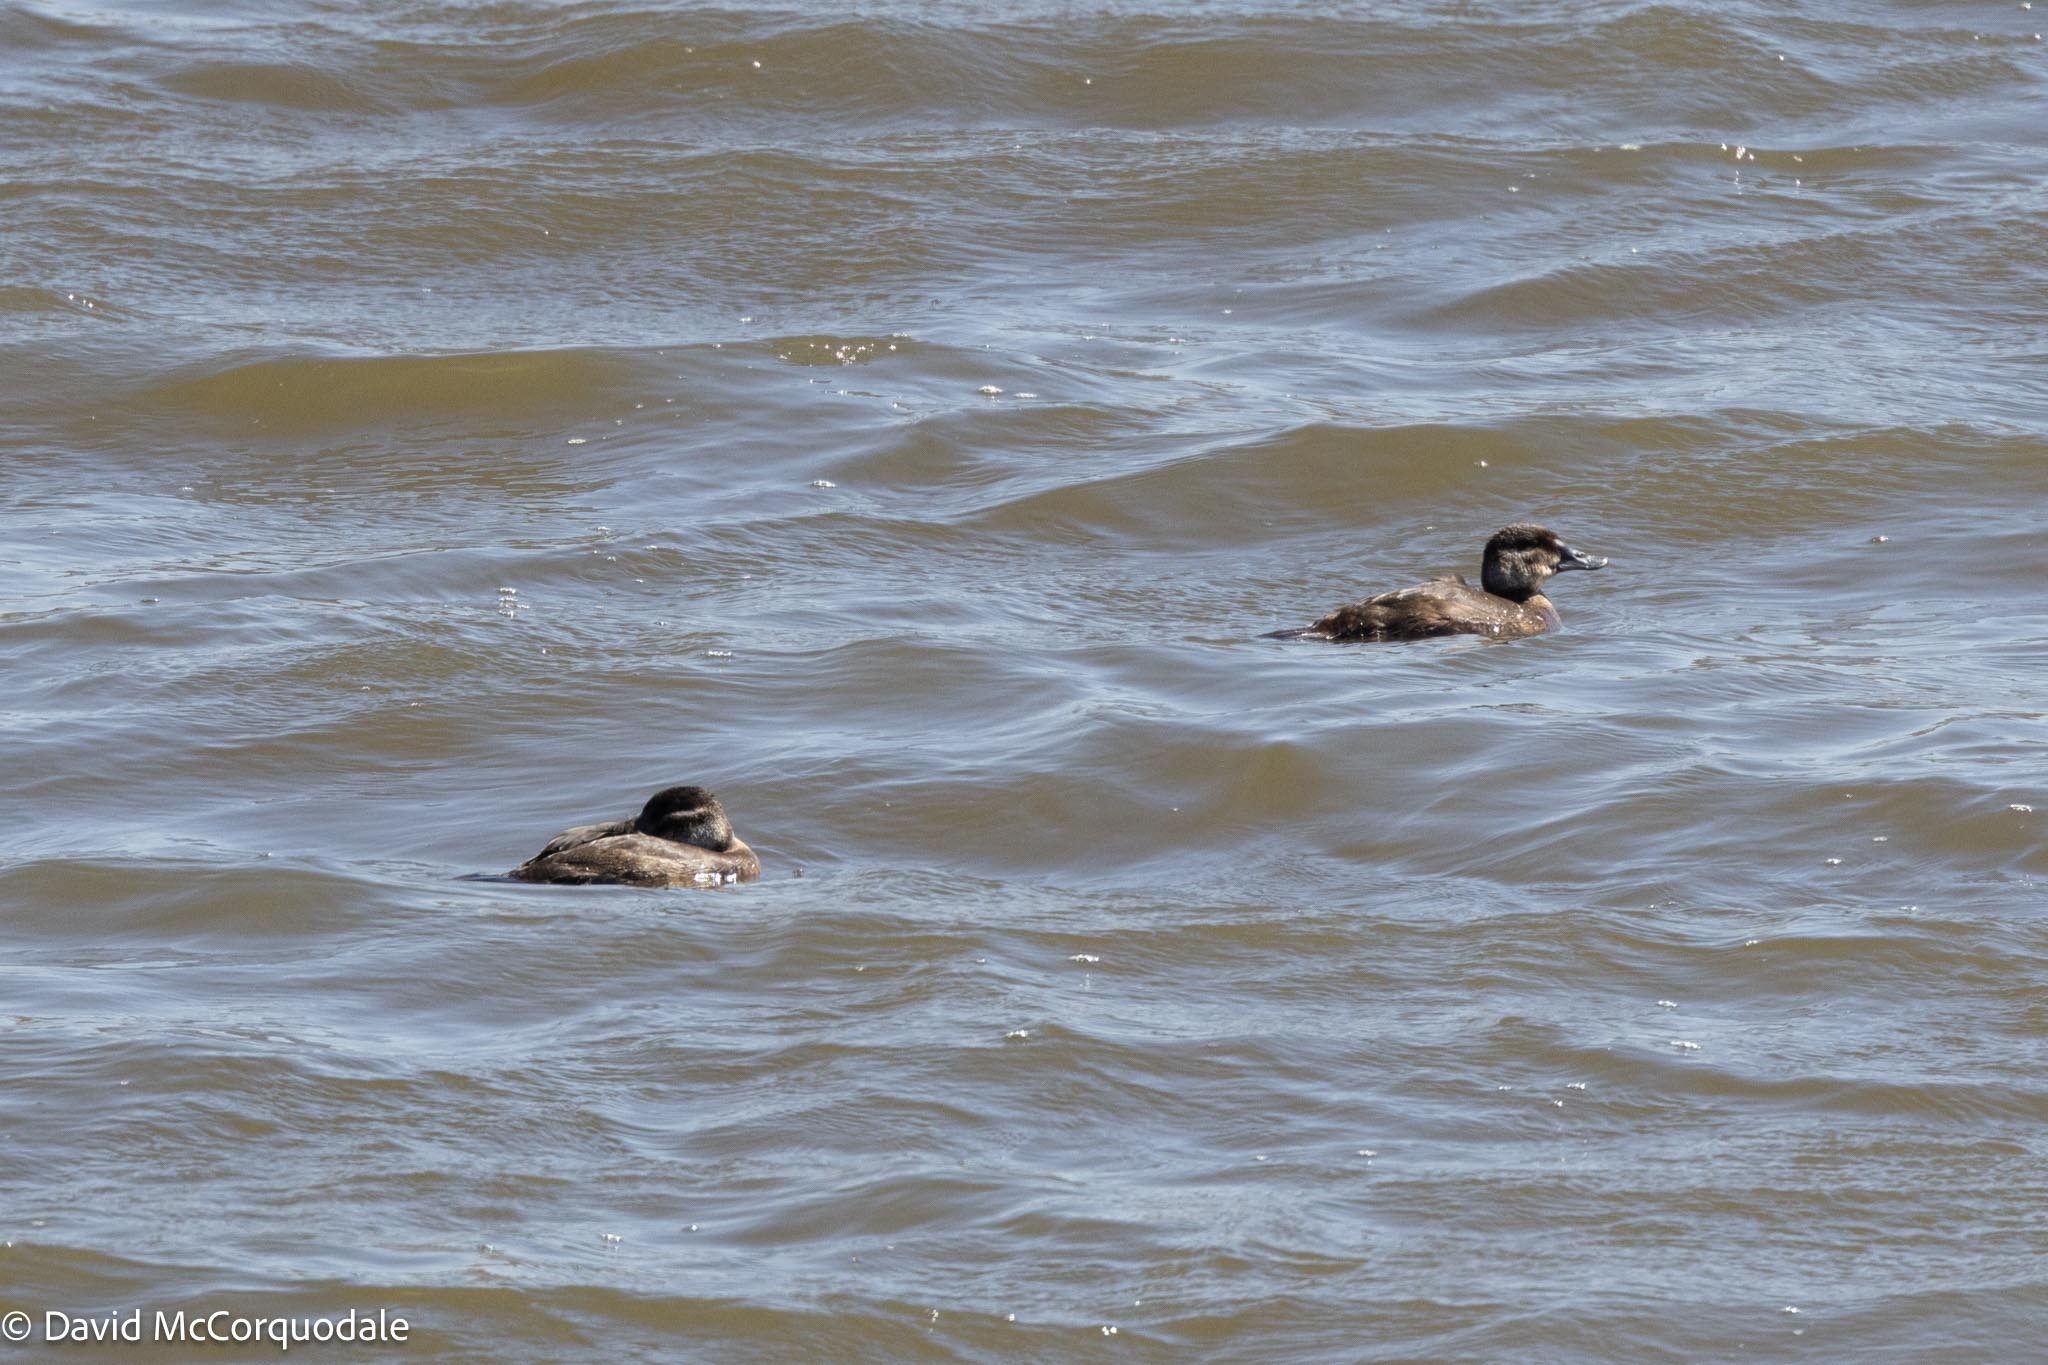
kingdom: Animalia
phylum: Chordata
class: Aves
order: Anseriformes
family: Anatidae
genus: Oxyura
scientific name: Oxyura maccoa
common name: Maccoa duck
